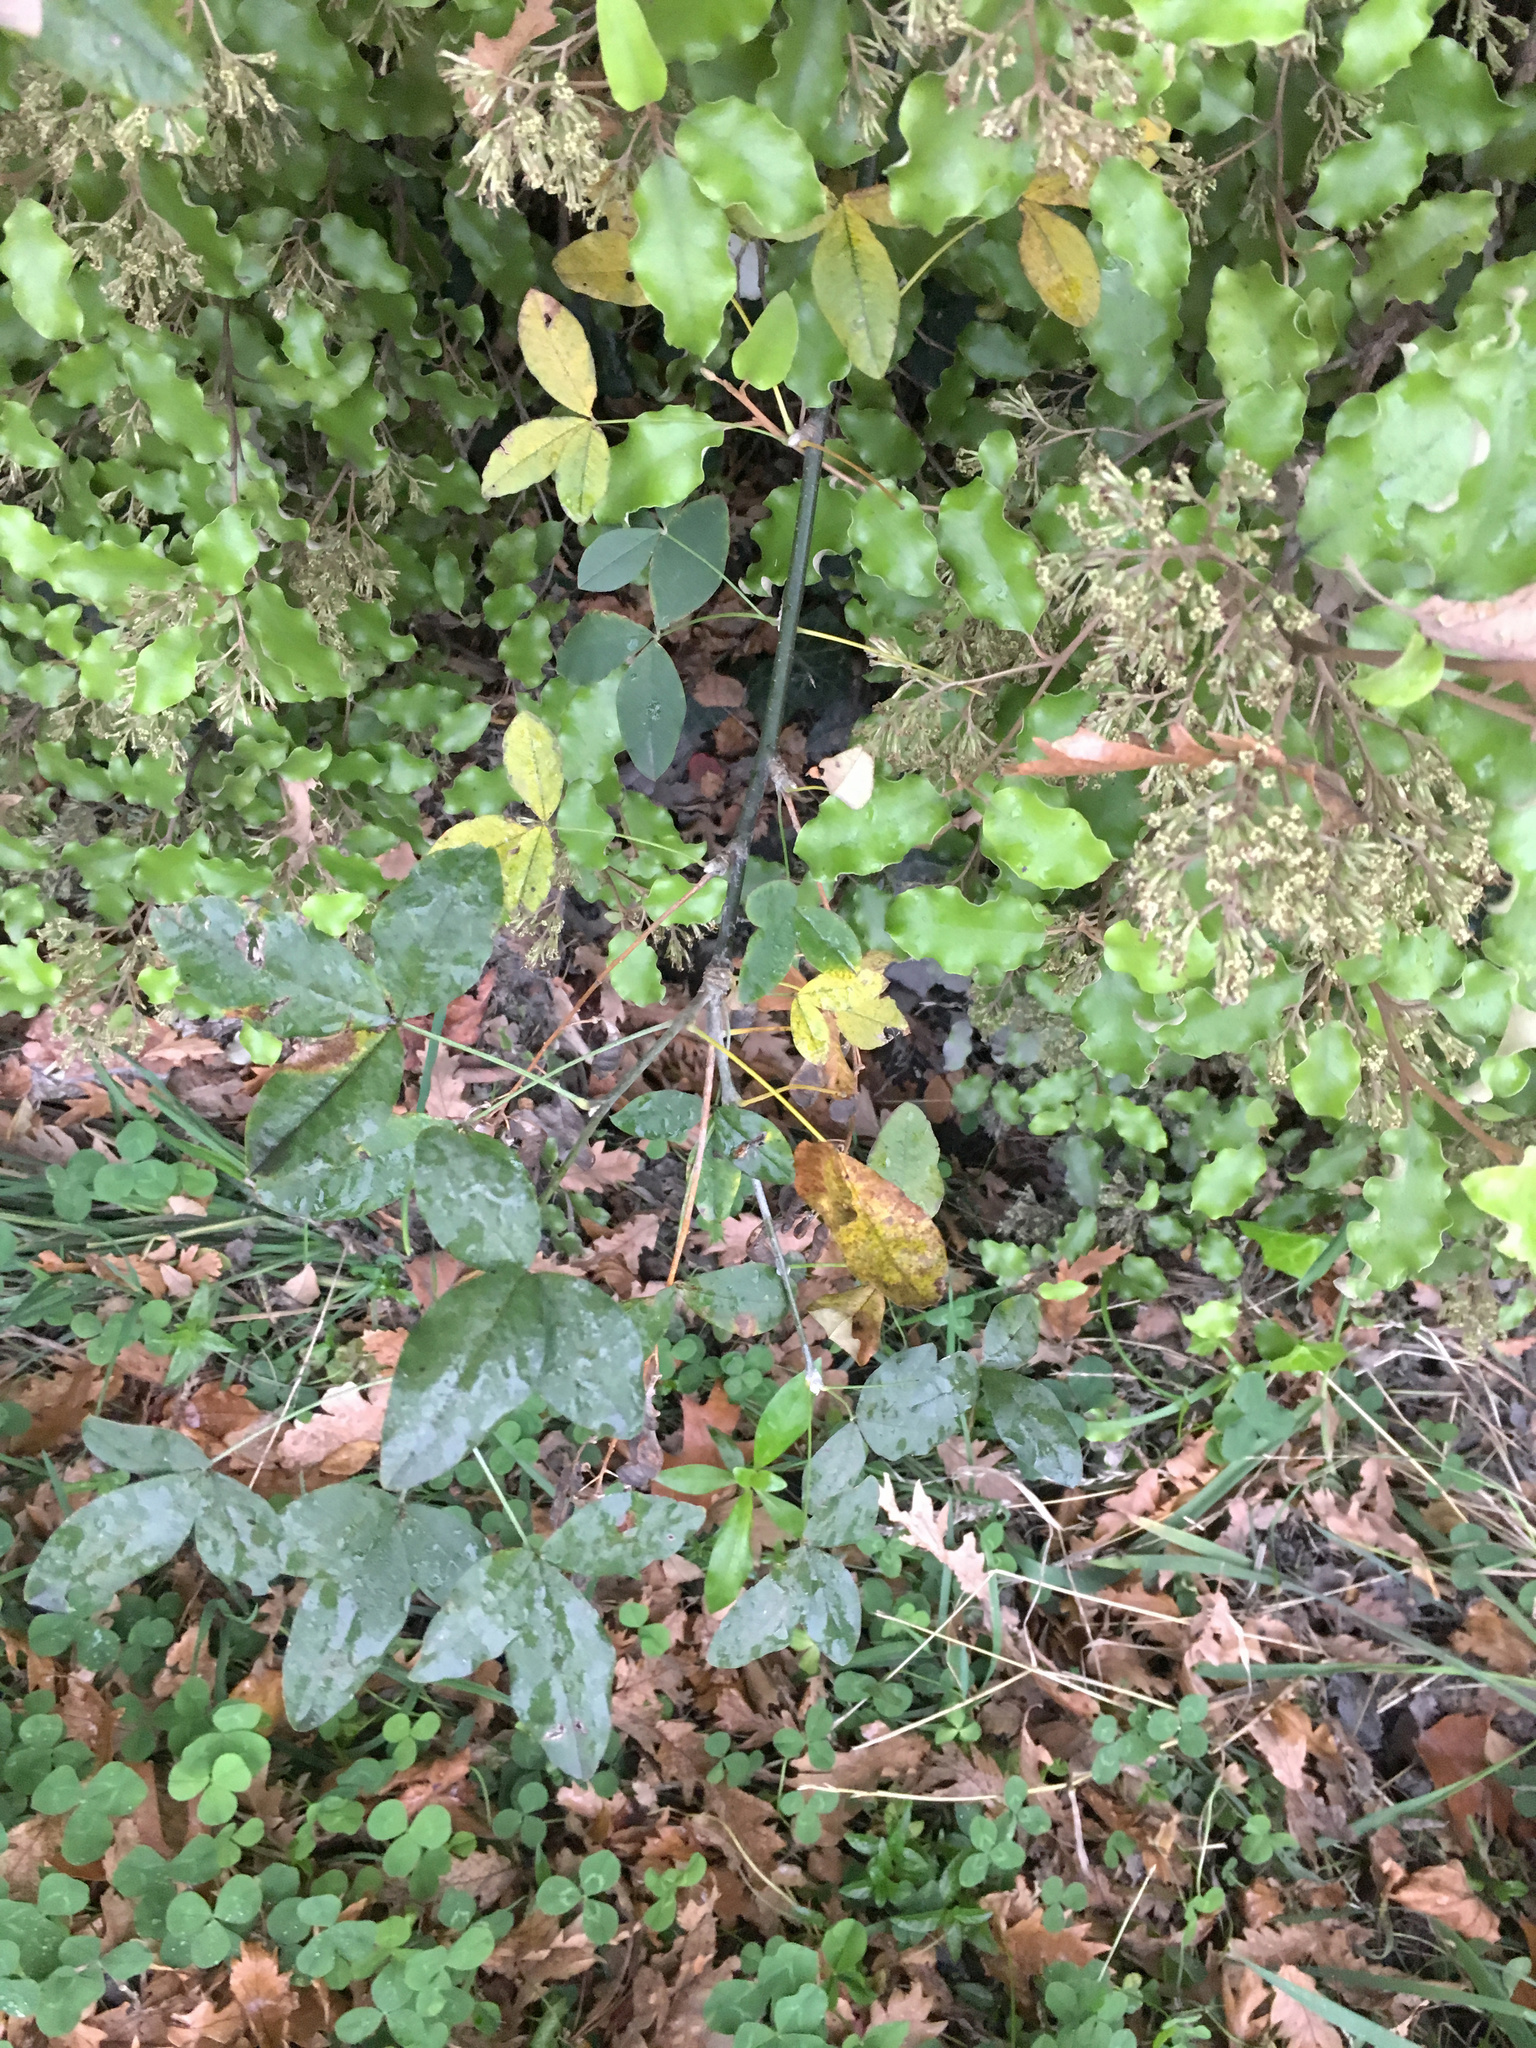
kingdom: Plantae
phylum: Tracheophyta
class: Magnoliopsida
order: Fabales
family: Fabaceae
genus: Laburnum
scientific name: Laburnum anagyroides
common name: Laburnum
